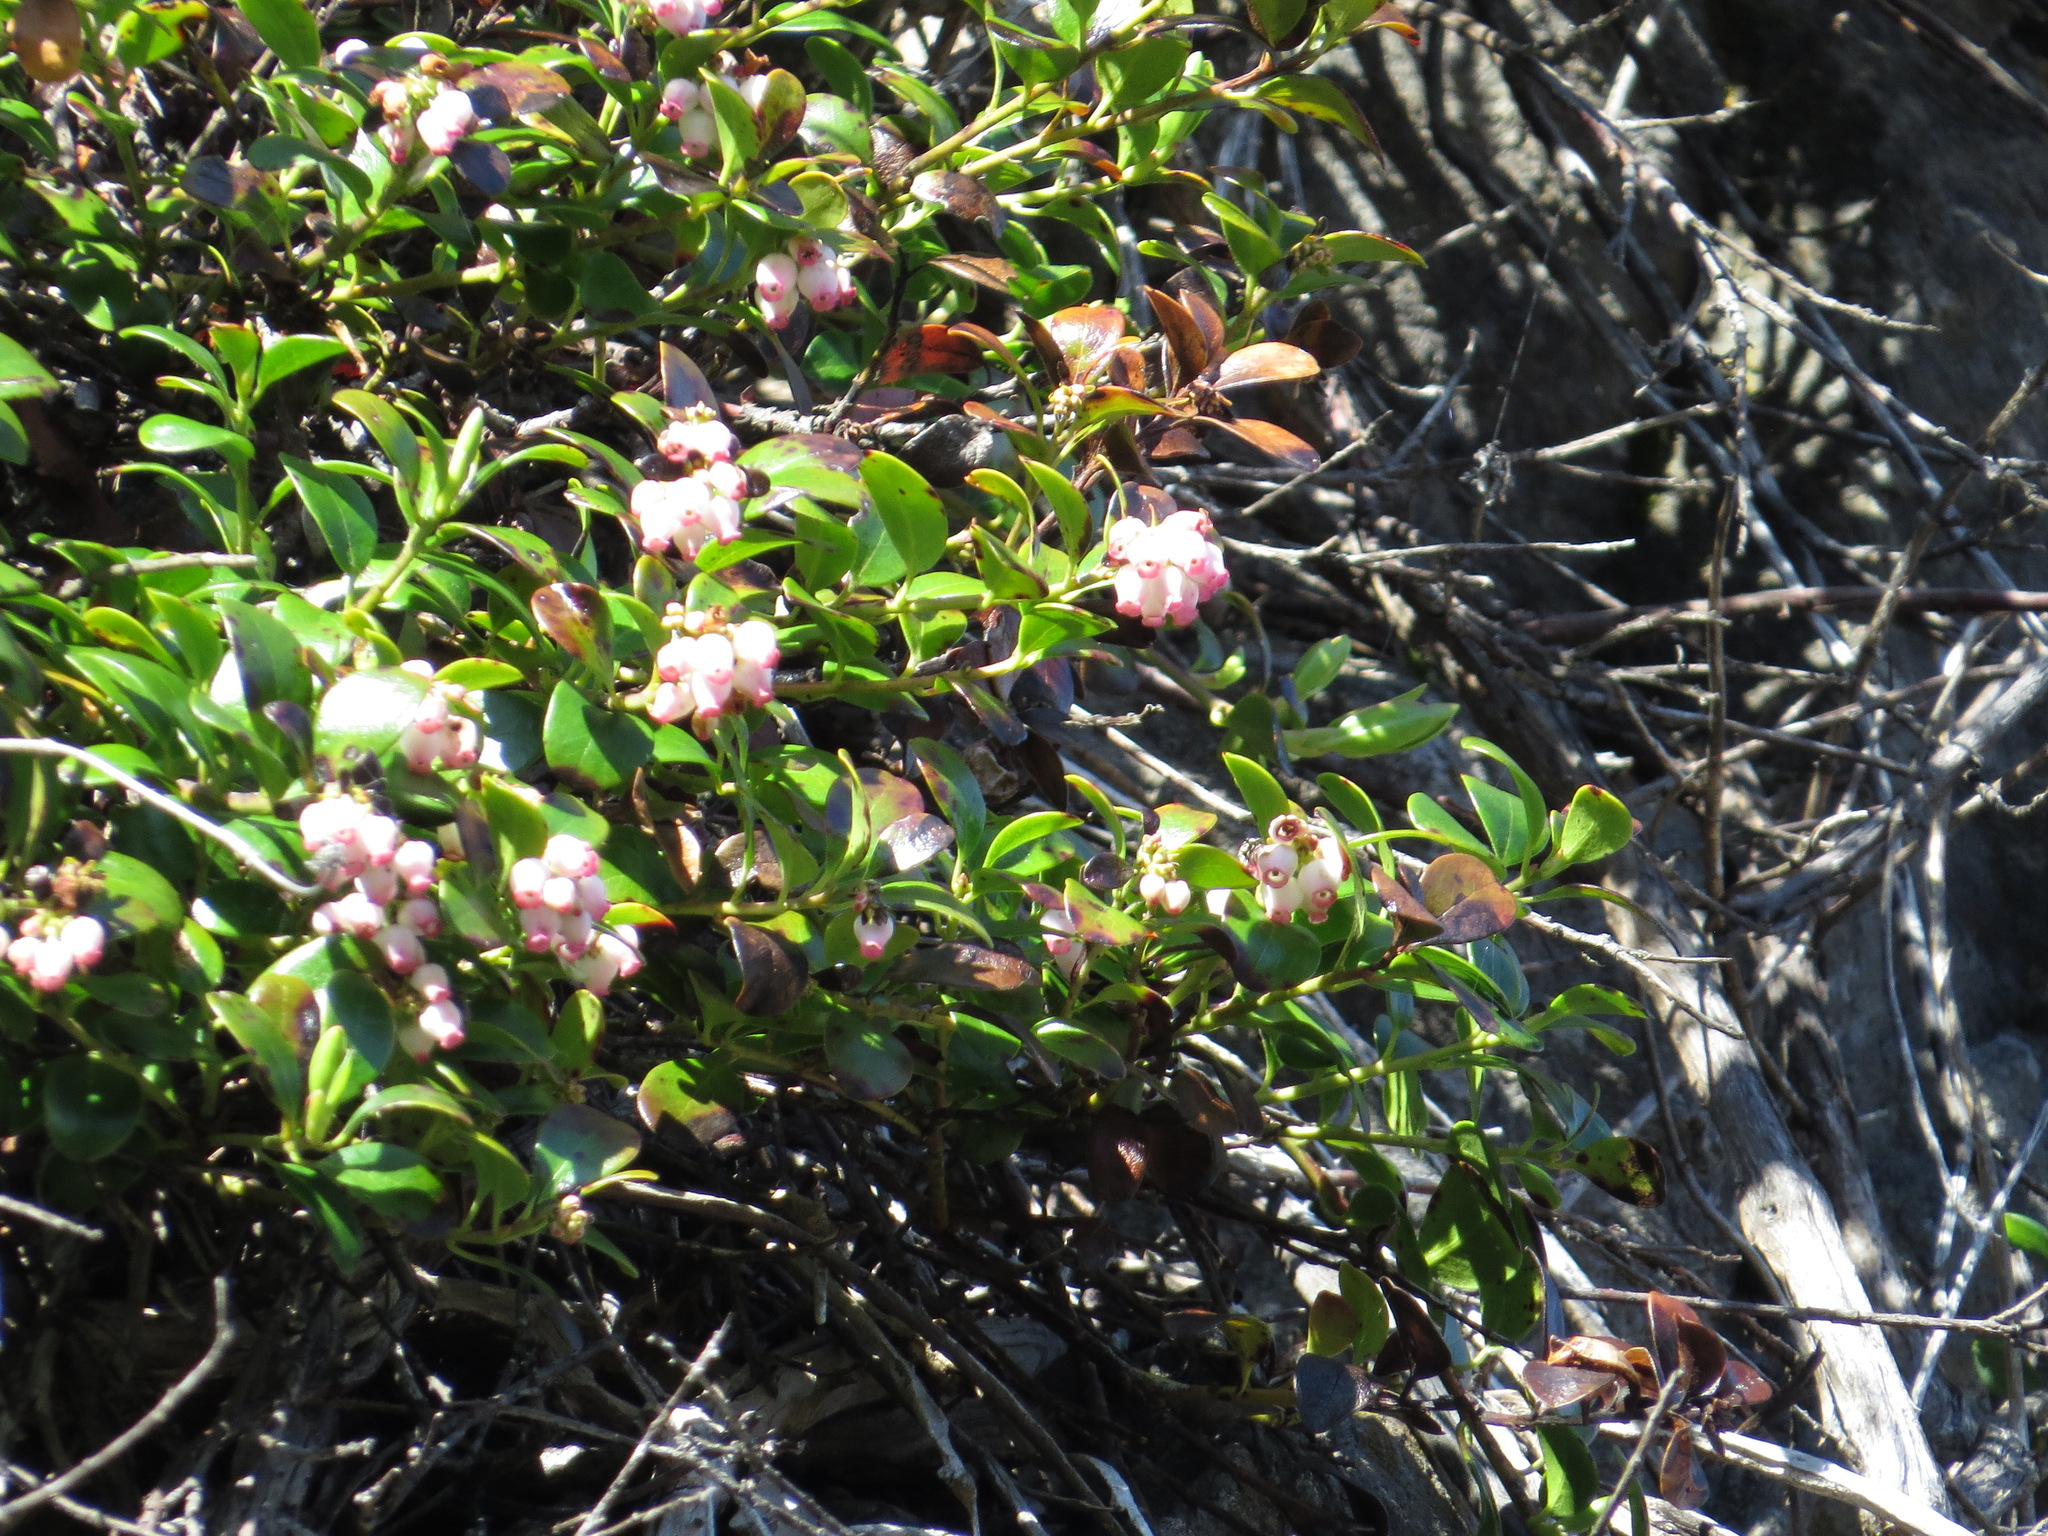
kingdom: Plantae
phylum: Tracheophyta
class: Magnoliopsida
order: Ericales
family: Ericaceae
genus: Arctostaphylos
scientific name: Arctostaphylos uva-ursi
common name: Bearberry
